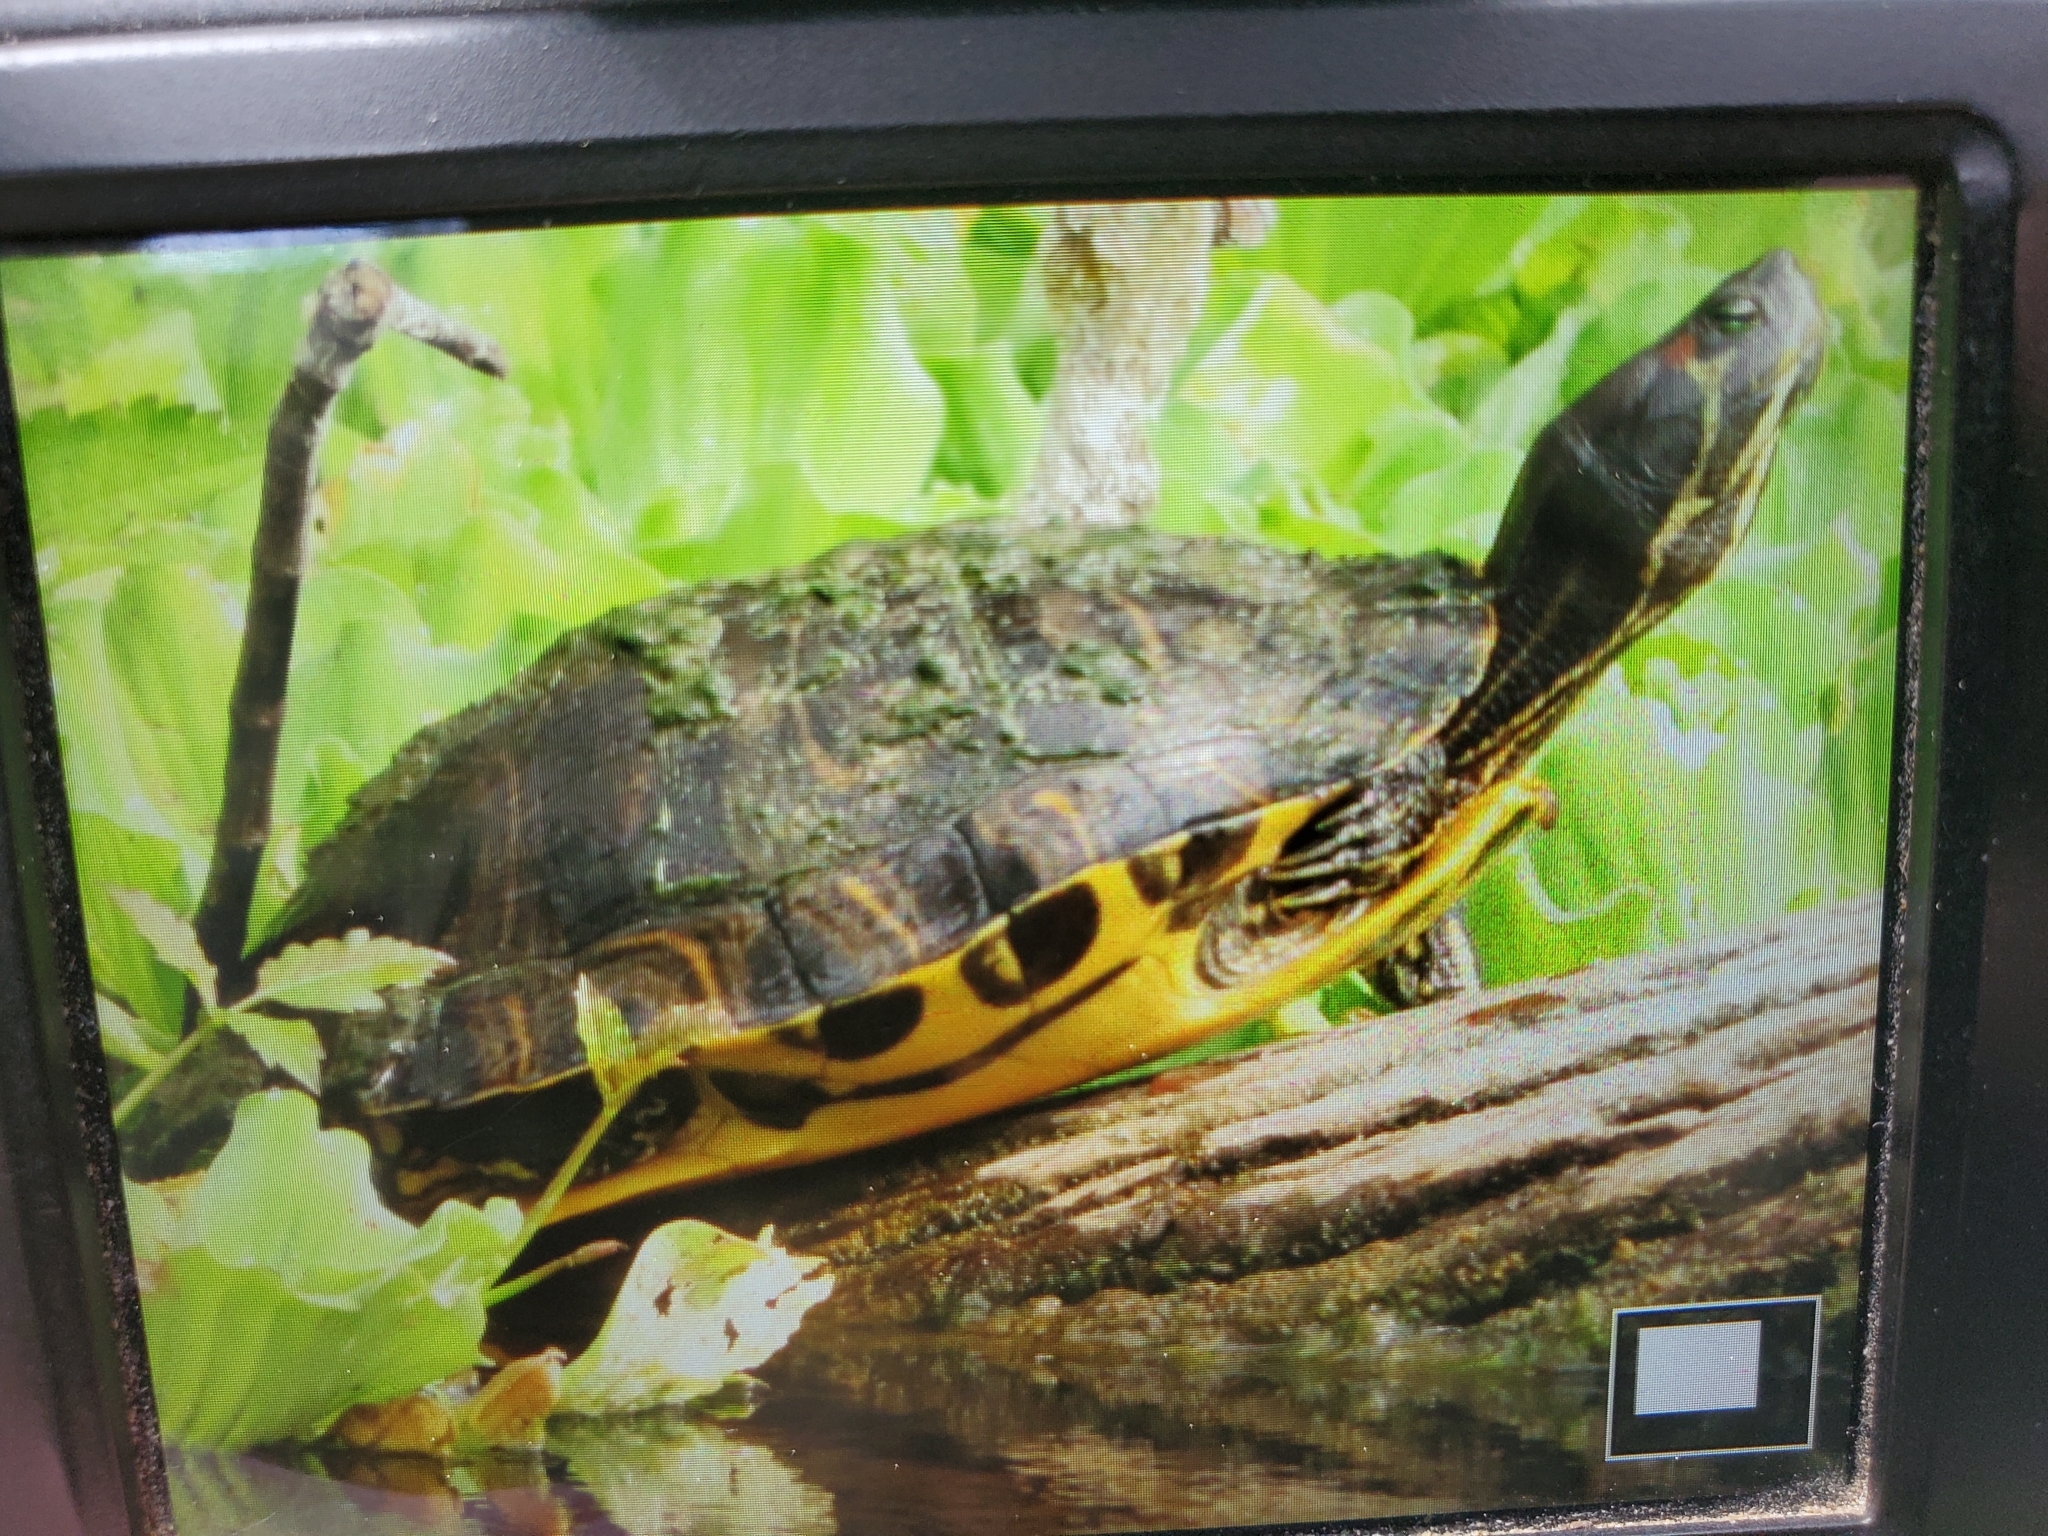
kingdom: Animalia
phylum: Chordata
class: Testudines
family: Emydidae
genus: Trachemys
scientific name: Trachemys scripta
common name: Slider
